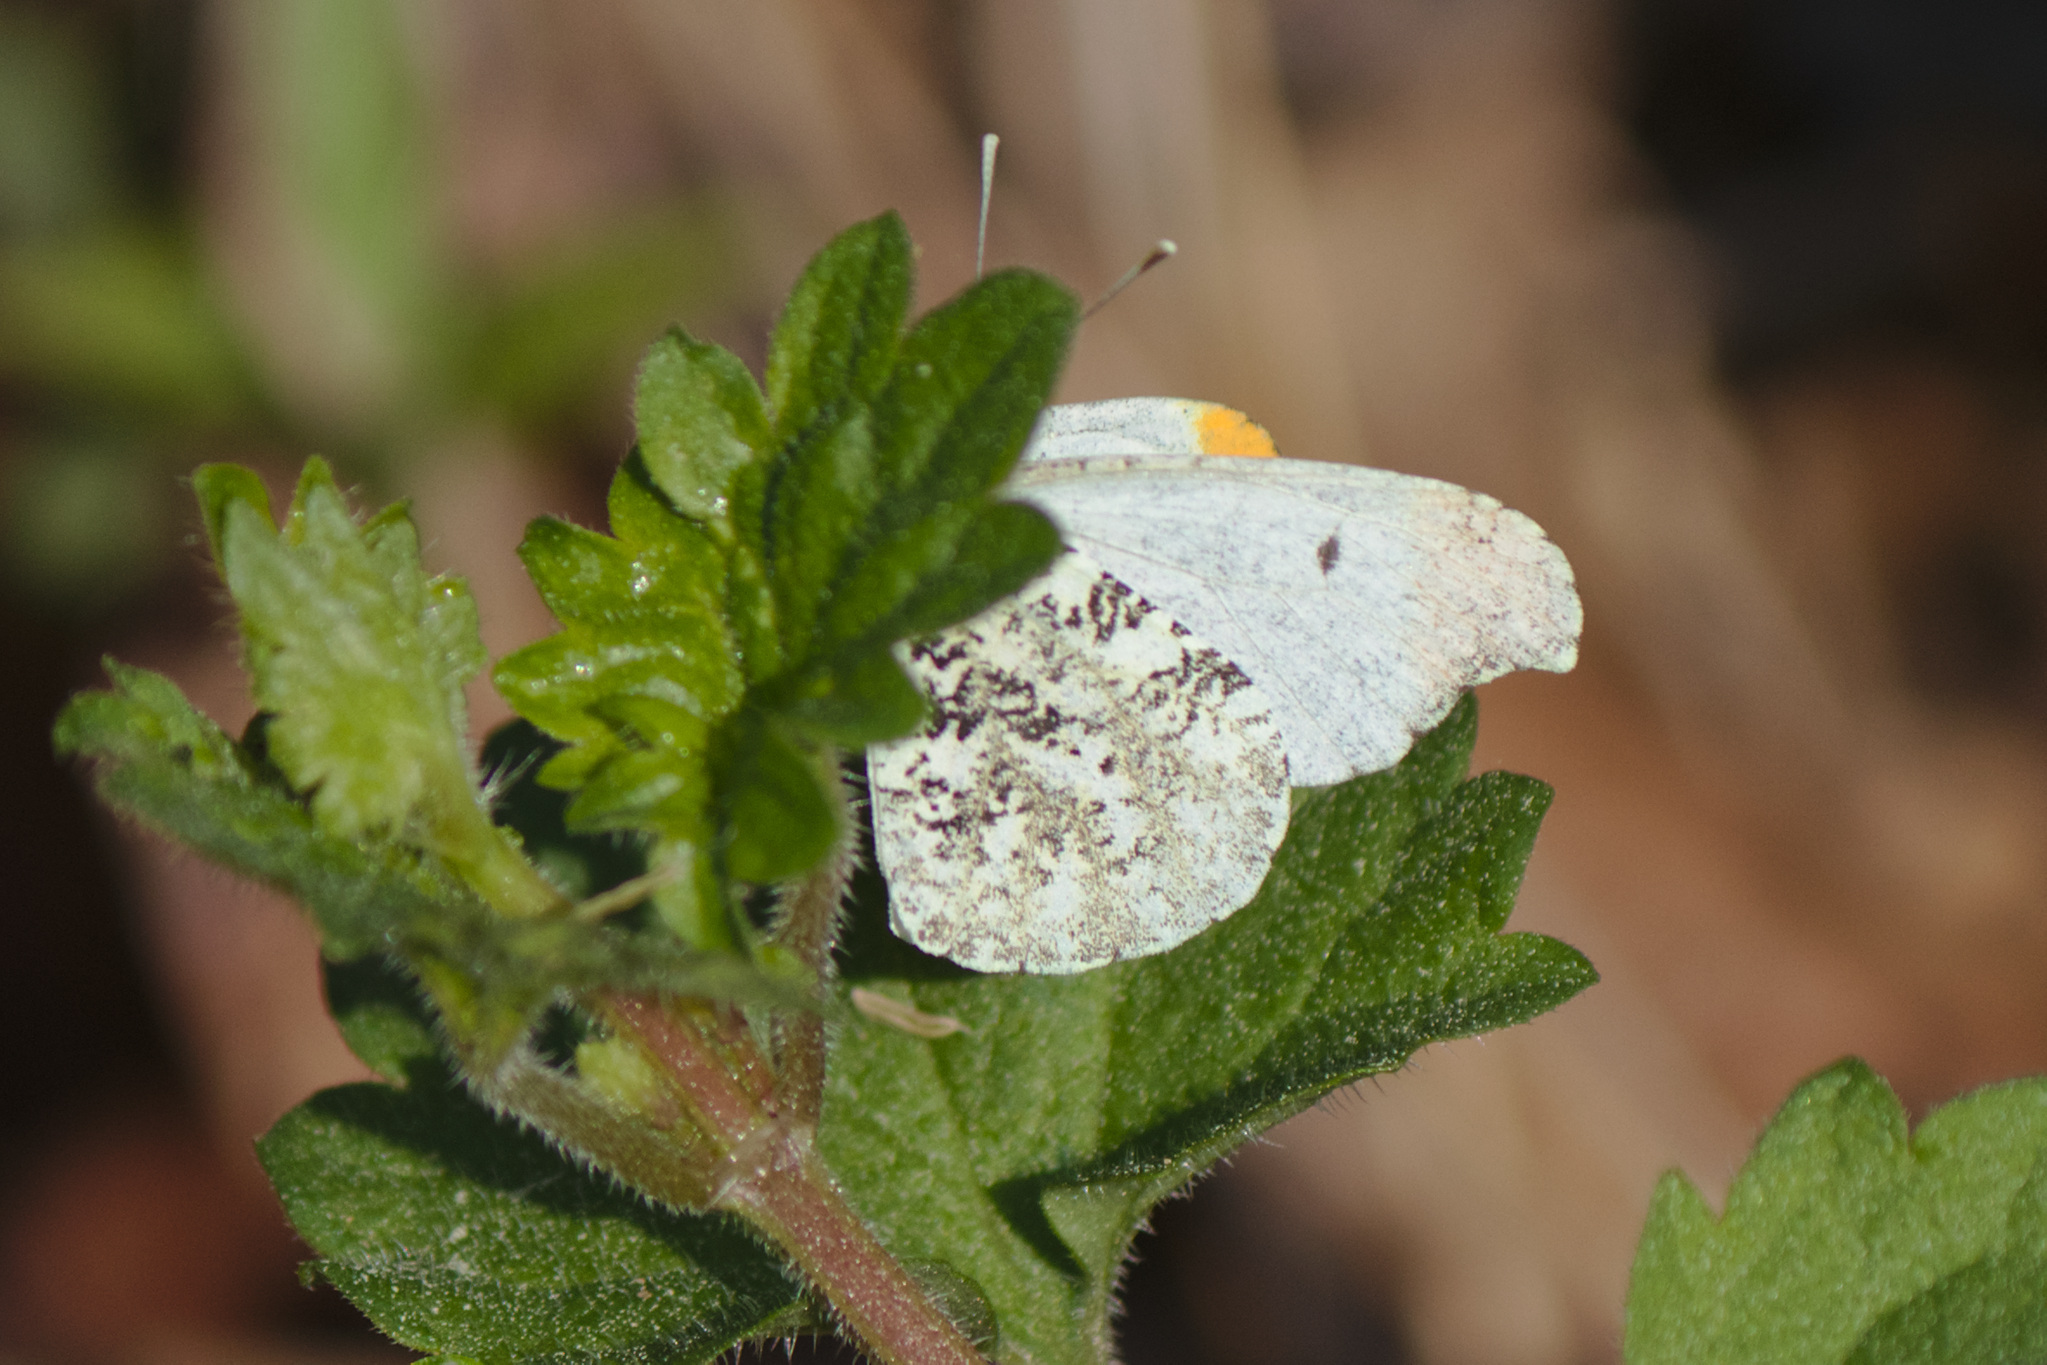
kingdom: Animalia
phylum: Arthropoda
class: Insecta
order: Lepidoptera
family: Pieridae
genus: Anthocharis
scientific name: Anthocharis midea
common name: Falcate orangetip
